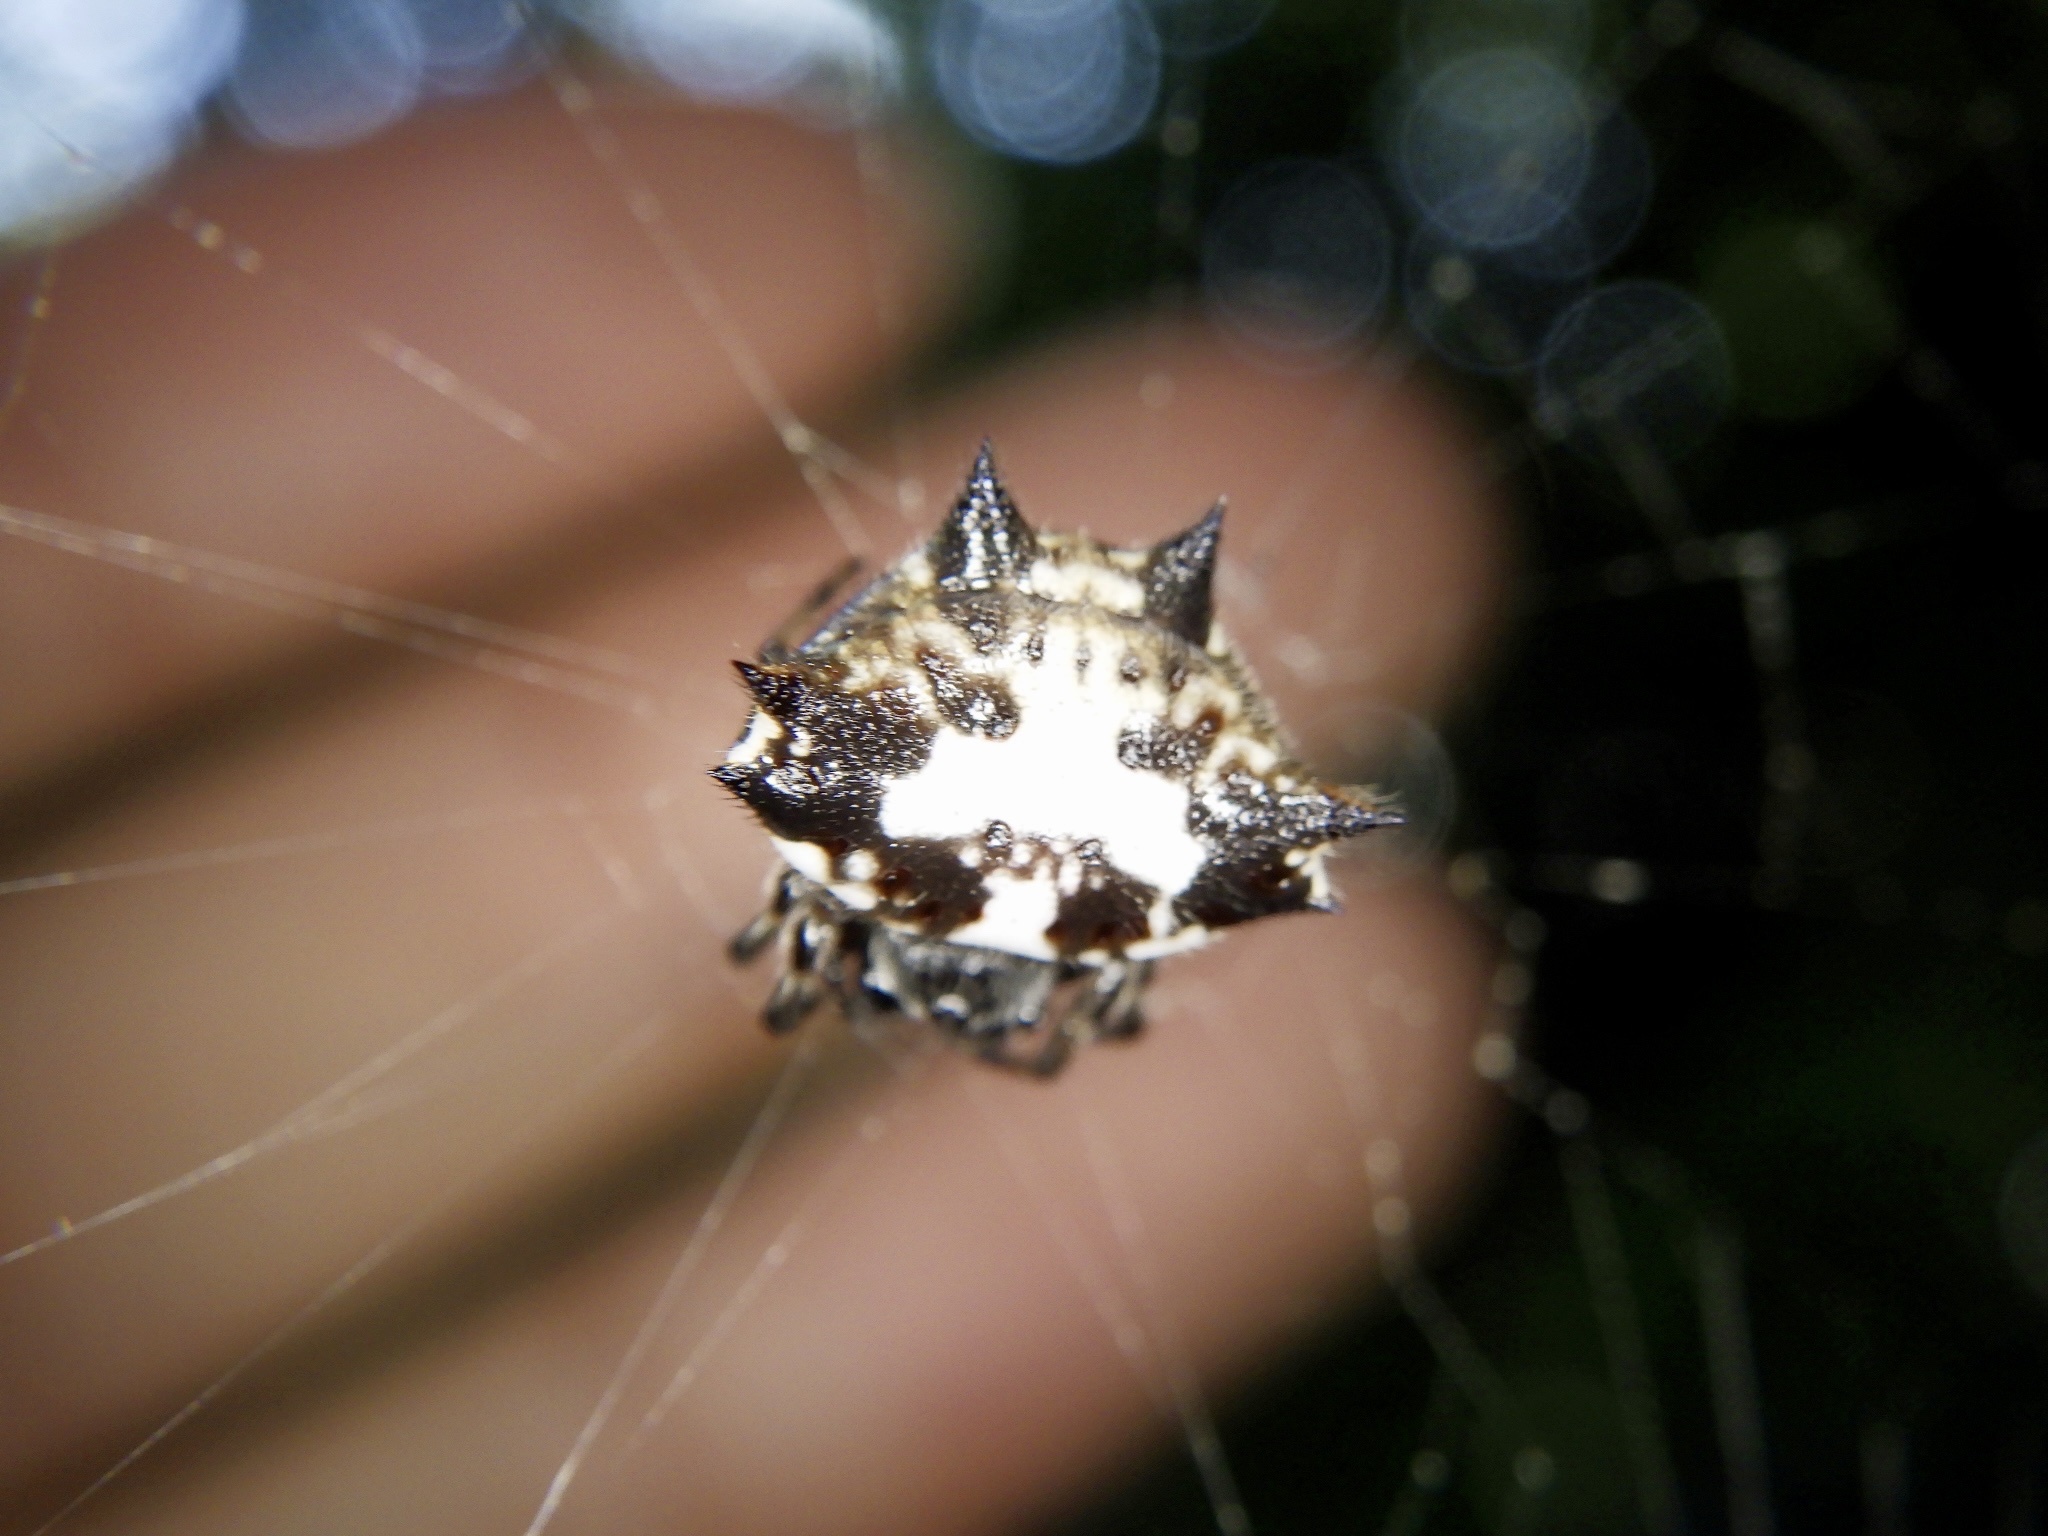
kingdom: Animalia
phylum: Arthropoda
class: Arachnida
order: Araneae
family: Araneidae
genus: Gasteracantha
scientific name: Gasteracantha kuhli
